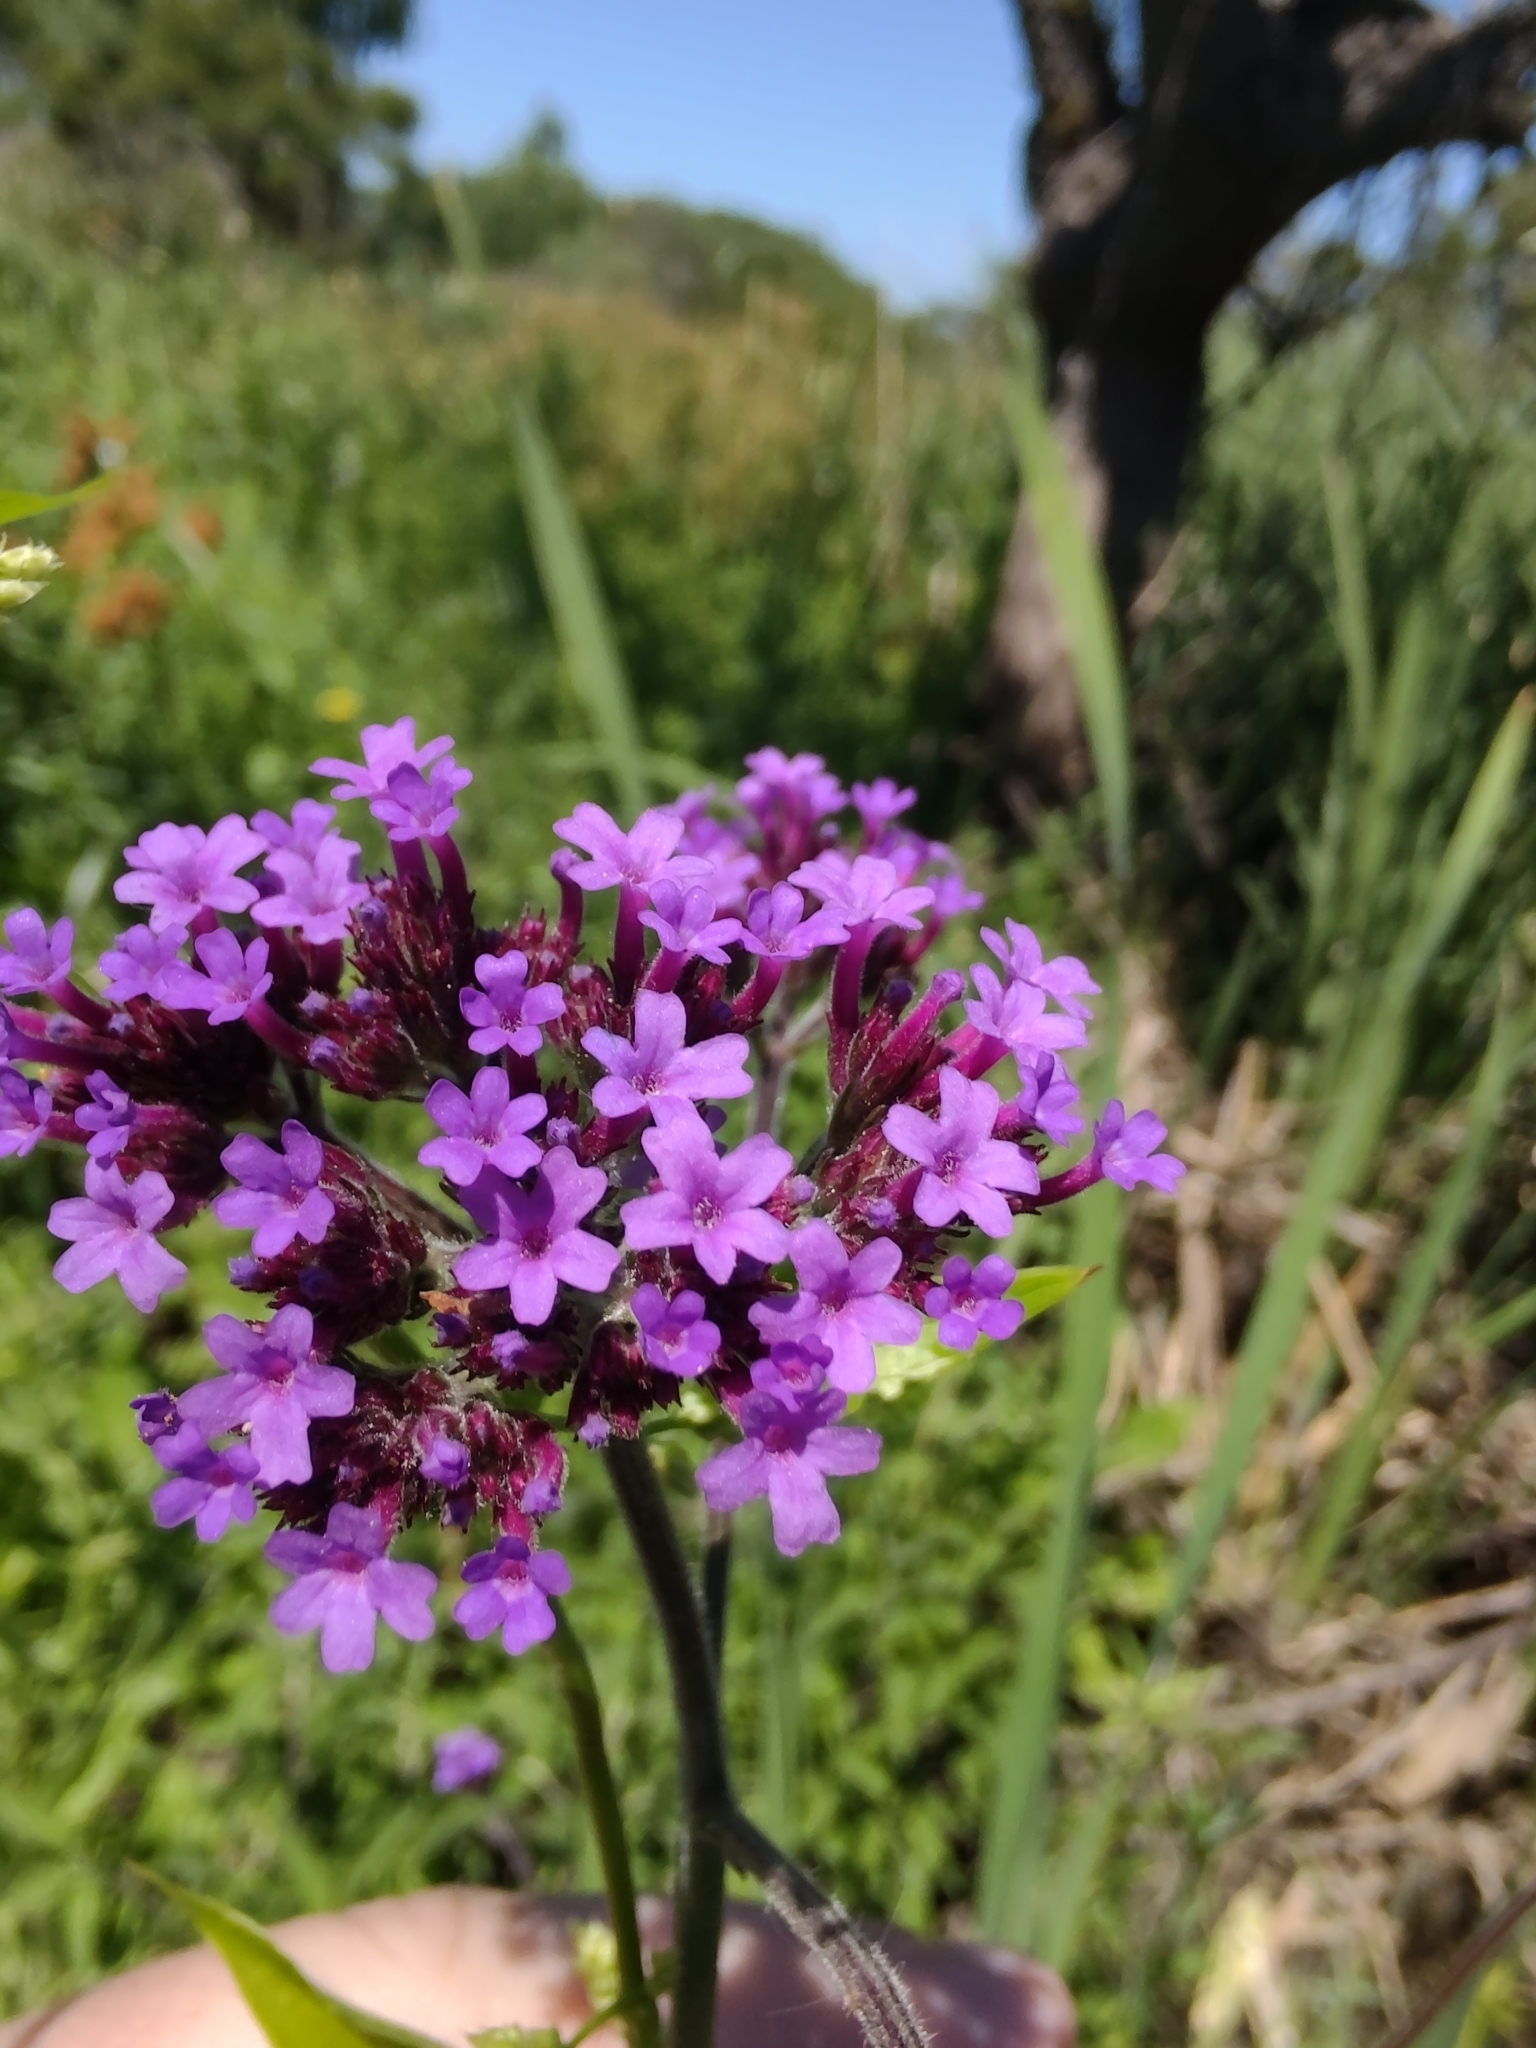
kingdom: Plantae
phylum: Tracheophyta
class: Magnoliopsida
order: Lamiales
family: Verbenaceae
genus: Verbena
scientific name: Verbena bonariensis
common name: Purpletop vervain
